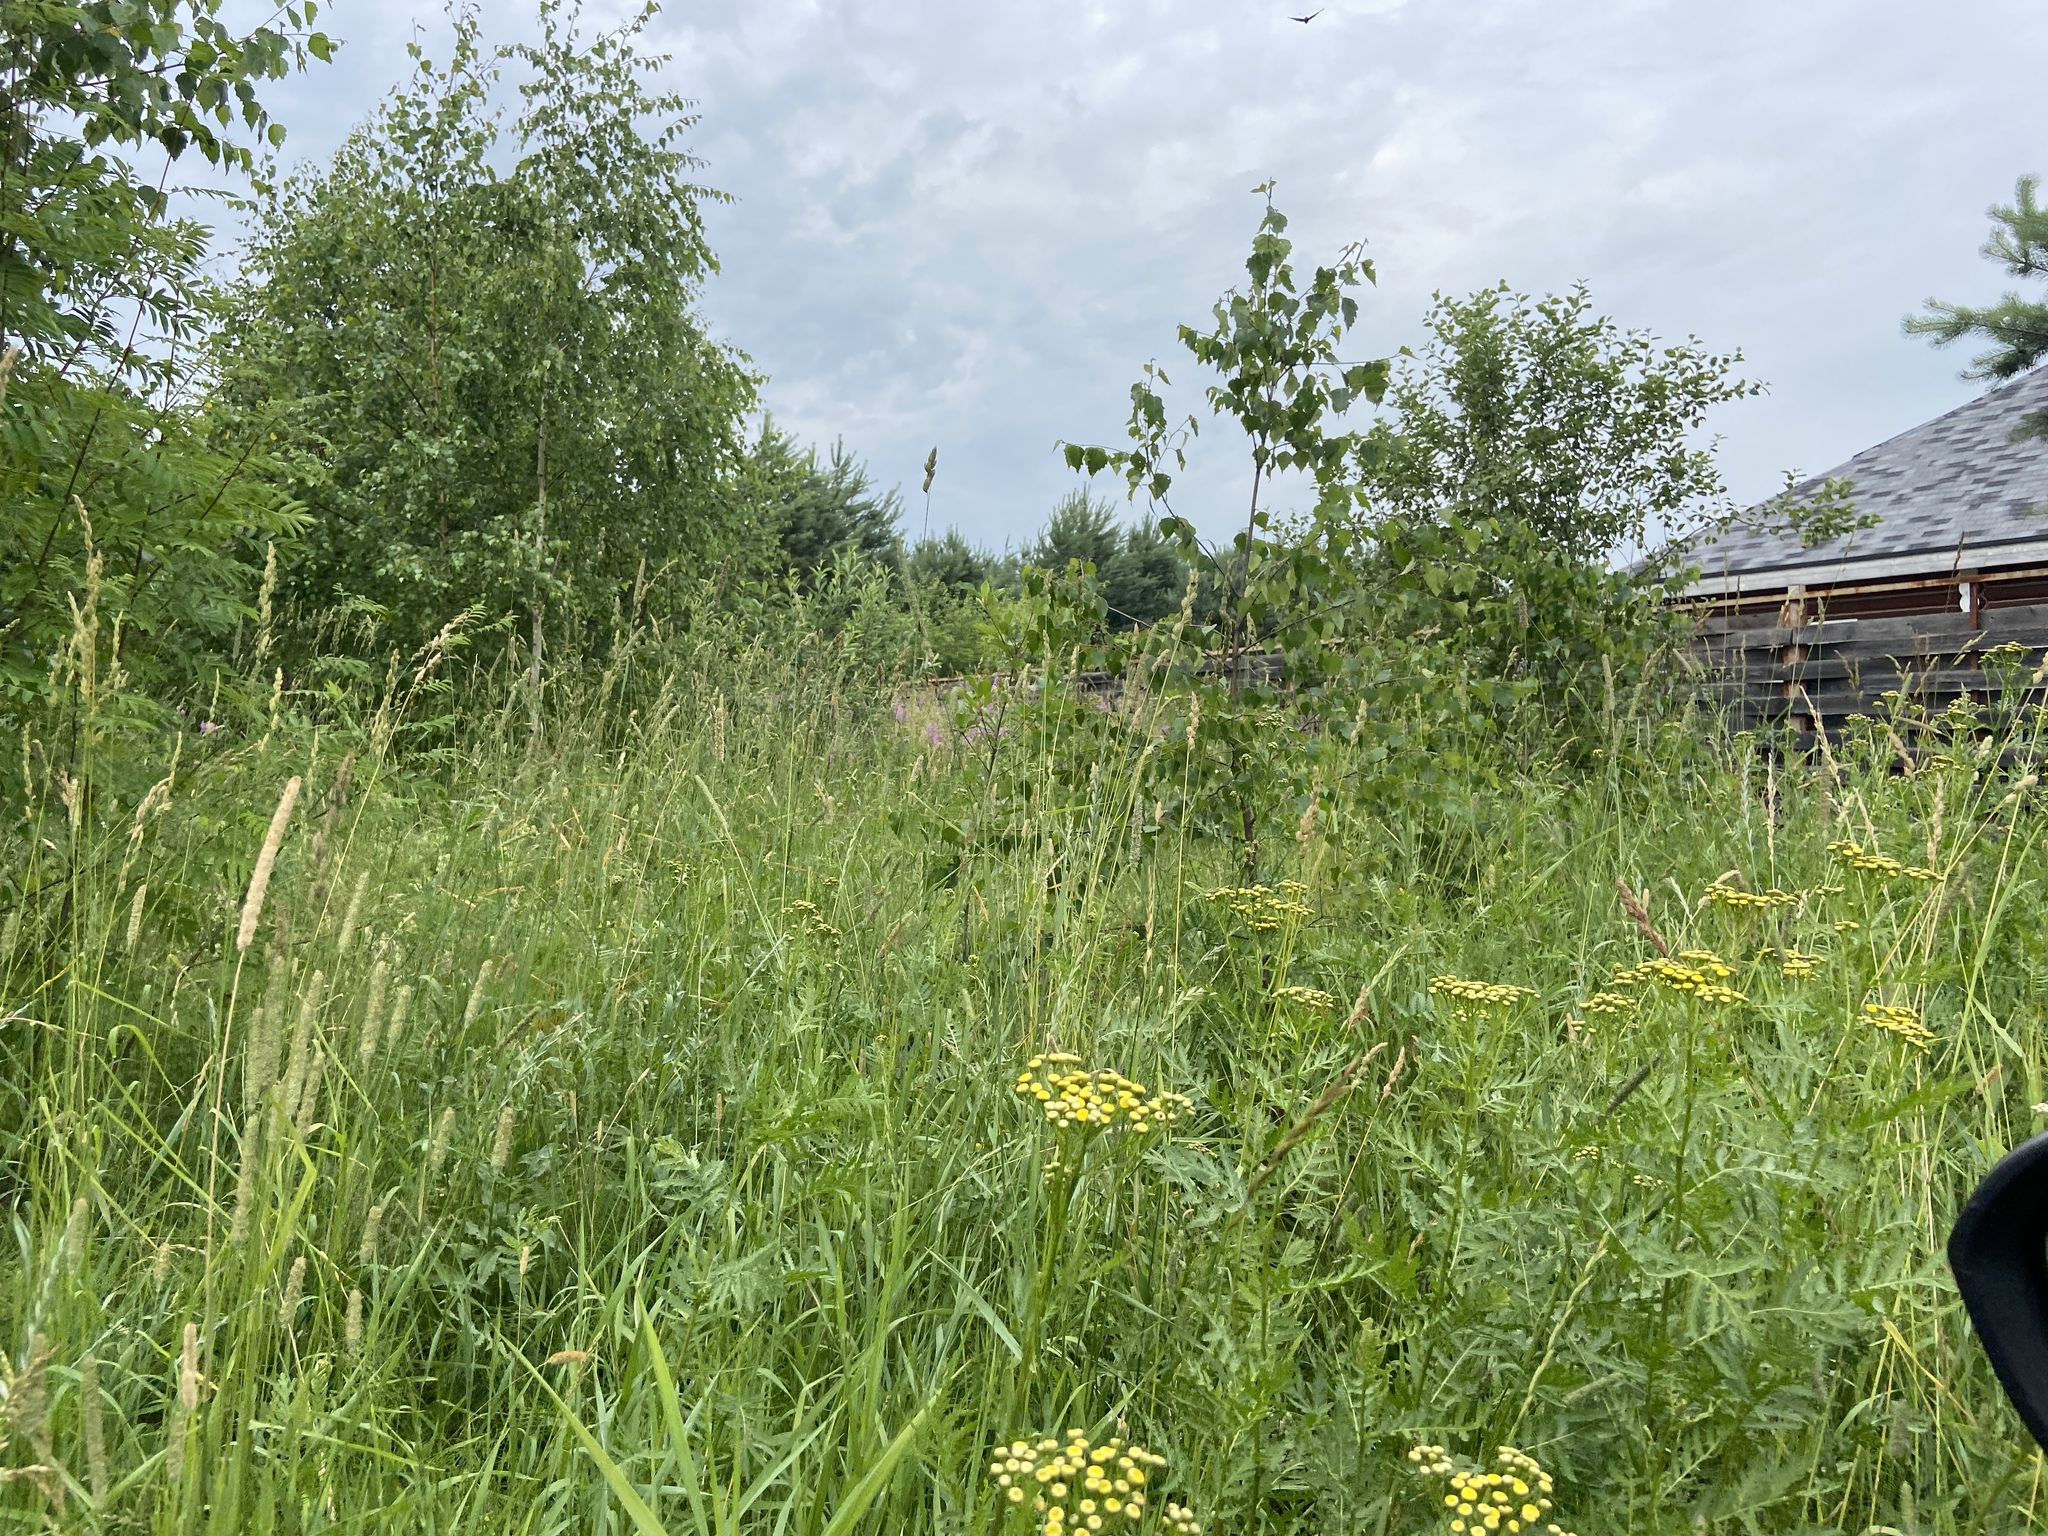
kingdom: Plantae
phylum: Tracheophyta
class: Magnoliopsida
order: Asterales
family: Asteraceae
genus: Tanacetum
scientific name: Tanacetum vulgare
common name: Common tansy
